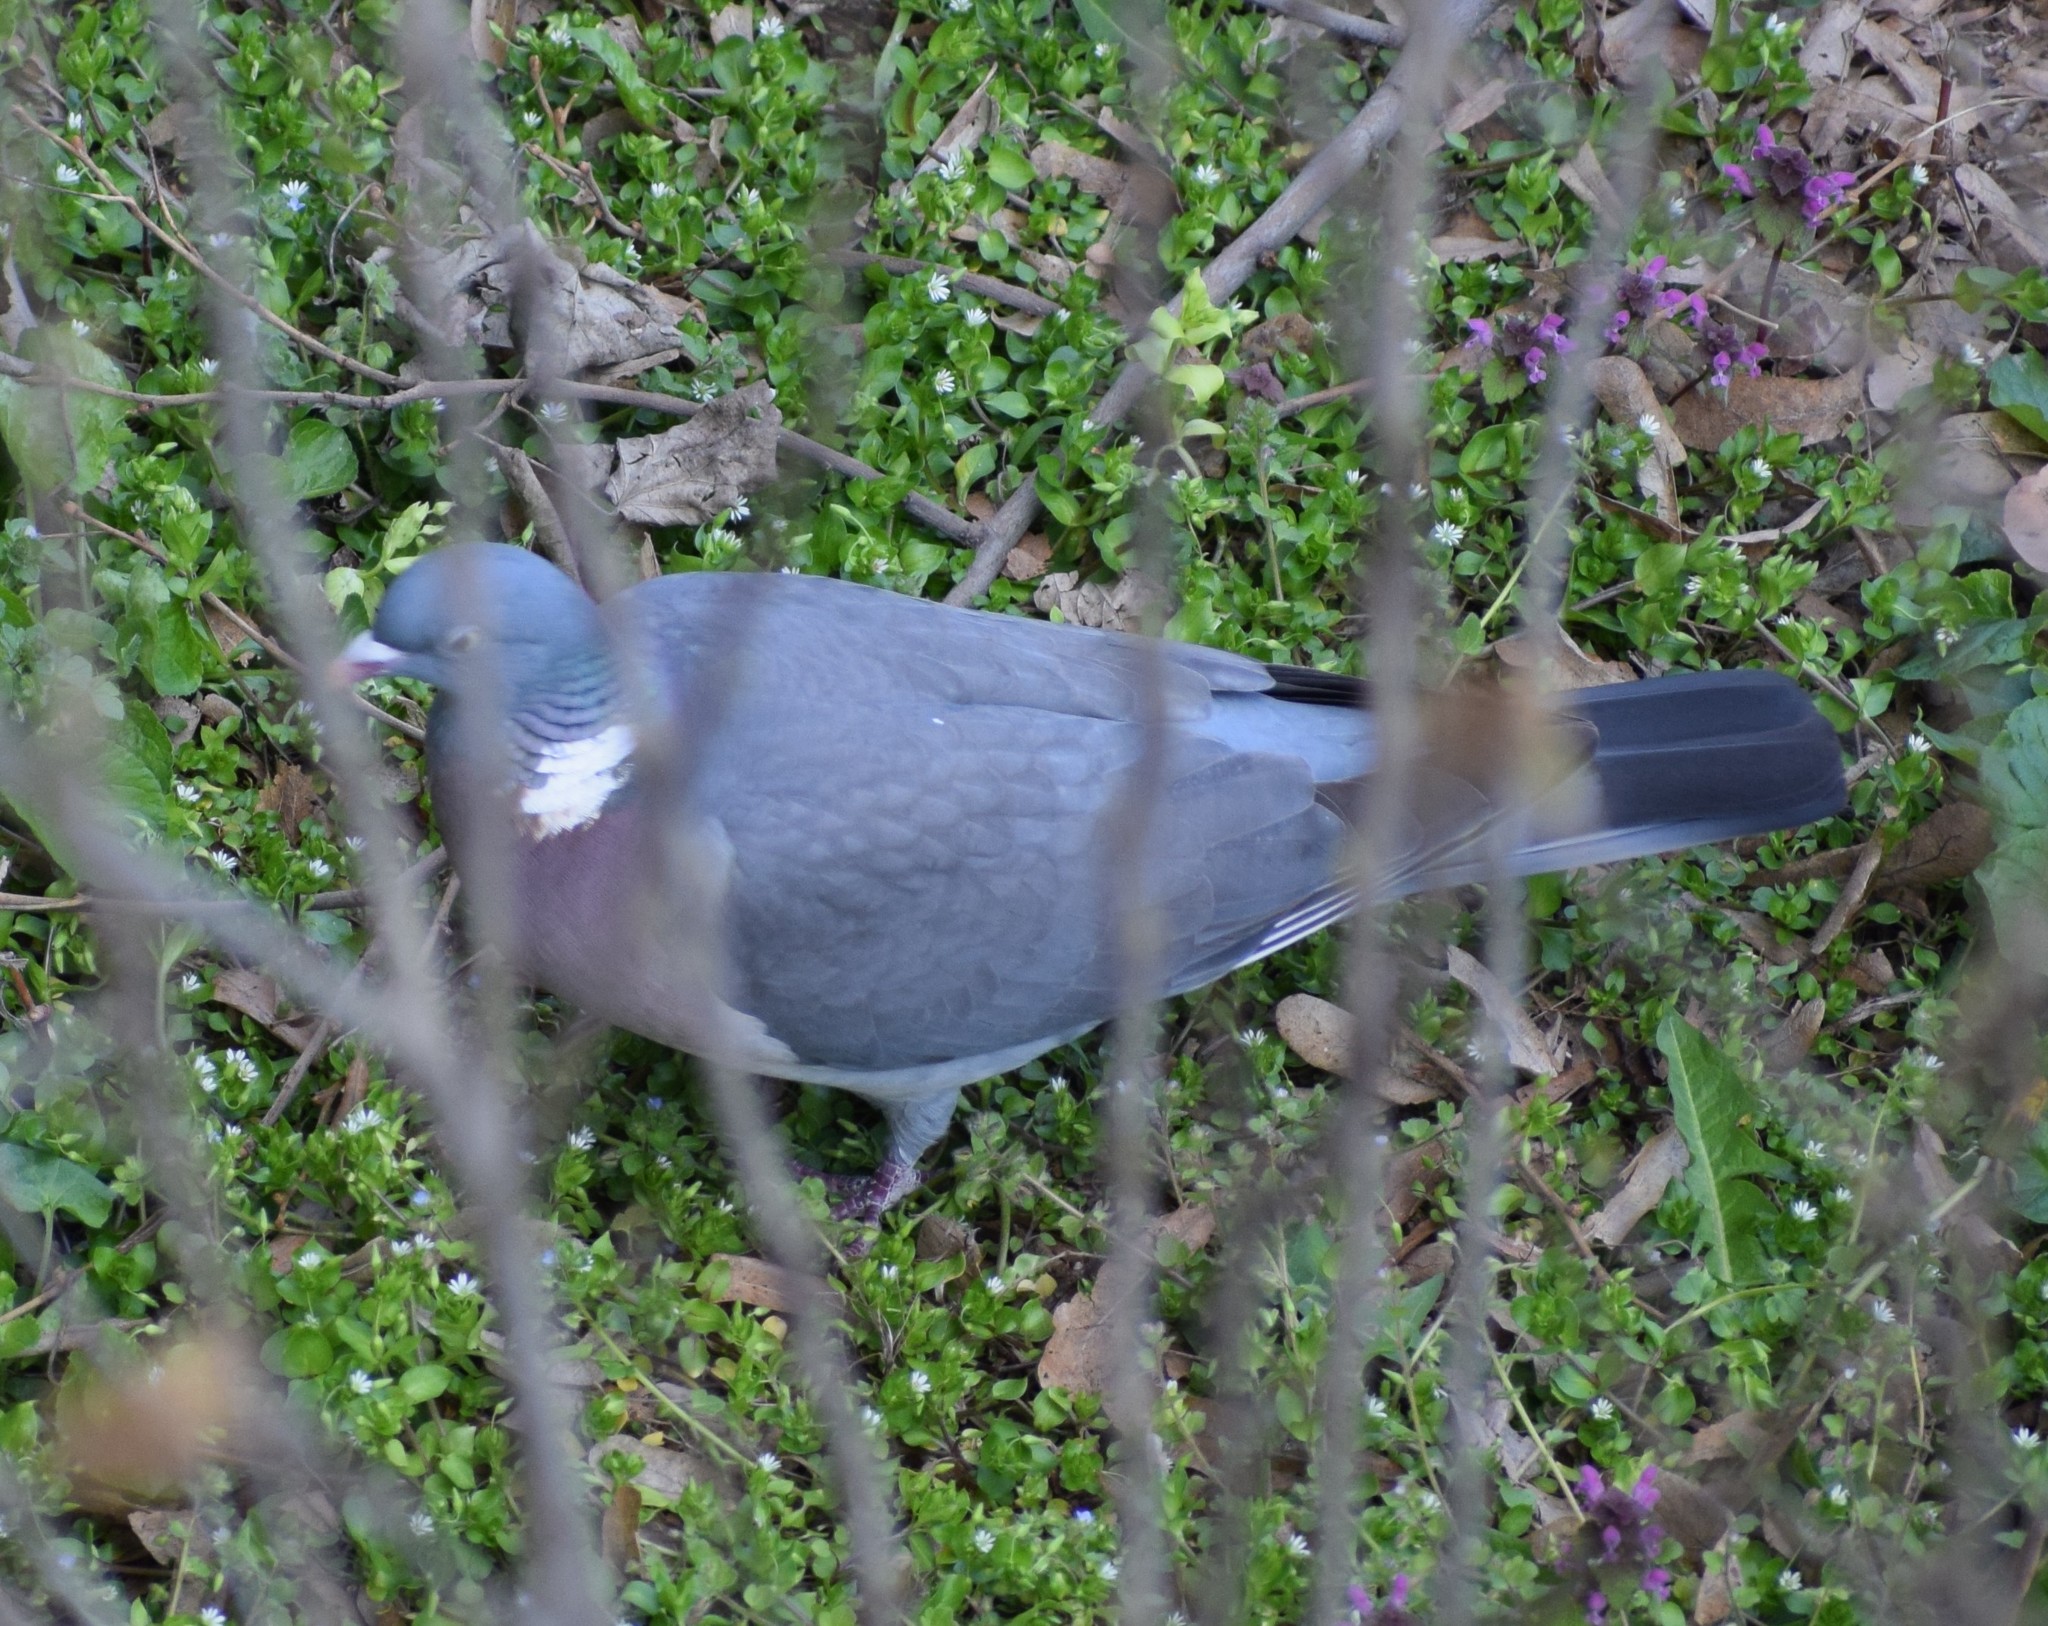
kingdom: Animalia
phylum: Chordata
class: Aves
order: Columbiformes
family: Columbidae
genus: Columba
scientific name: Columba palumbus
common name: Common wood pigeon
